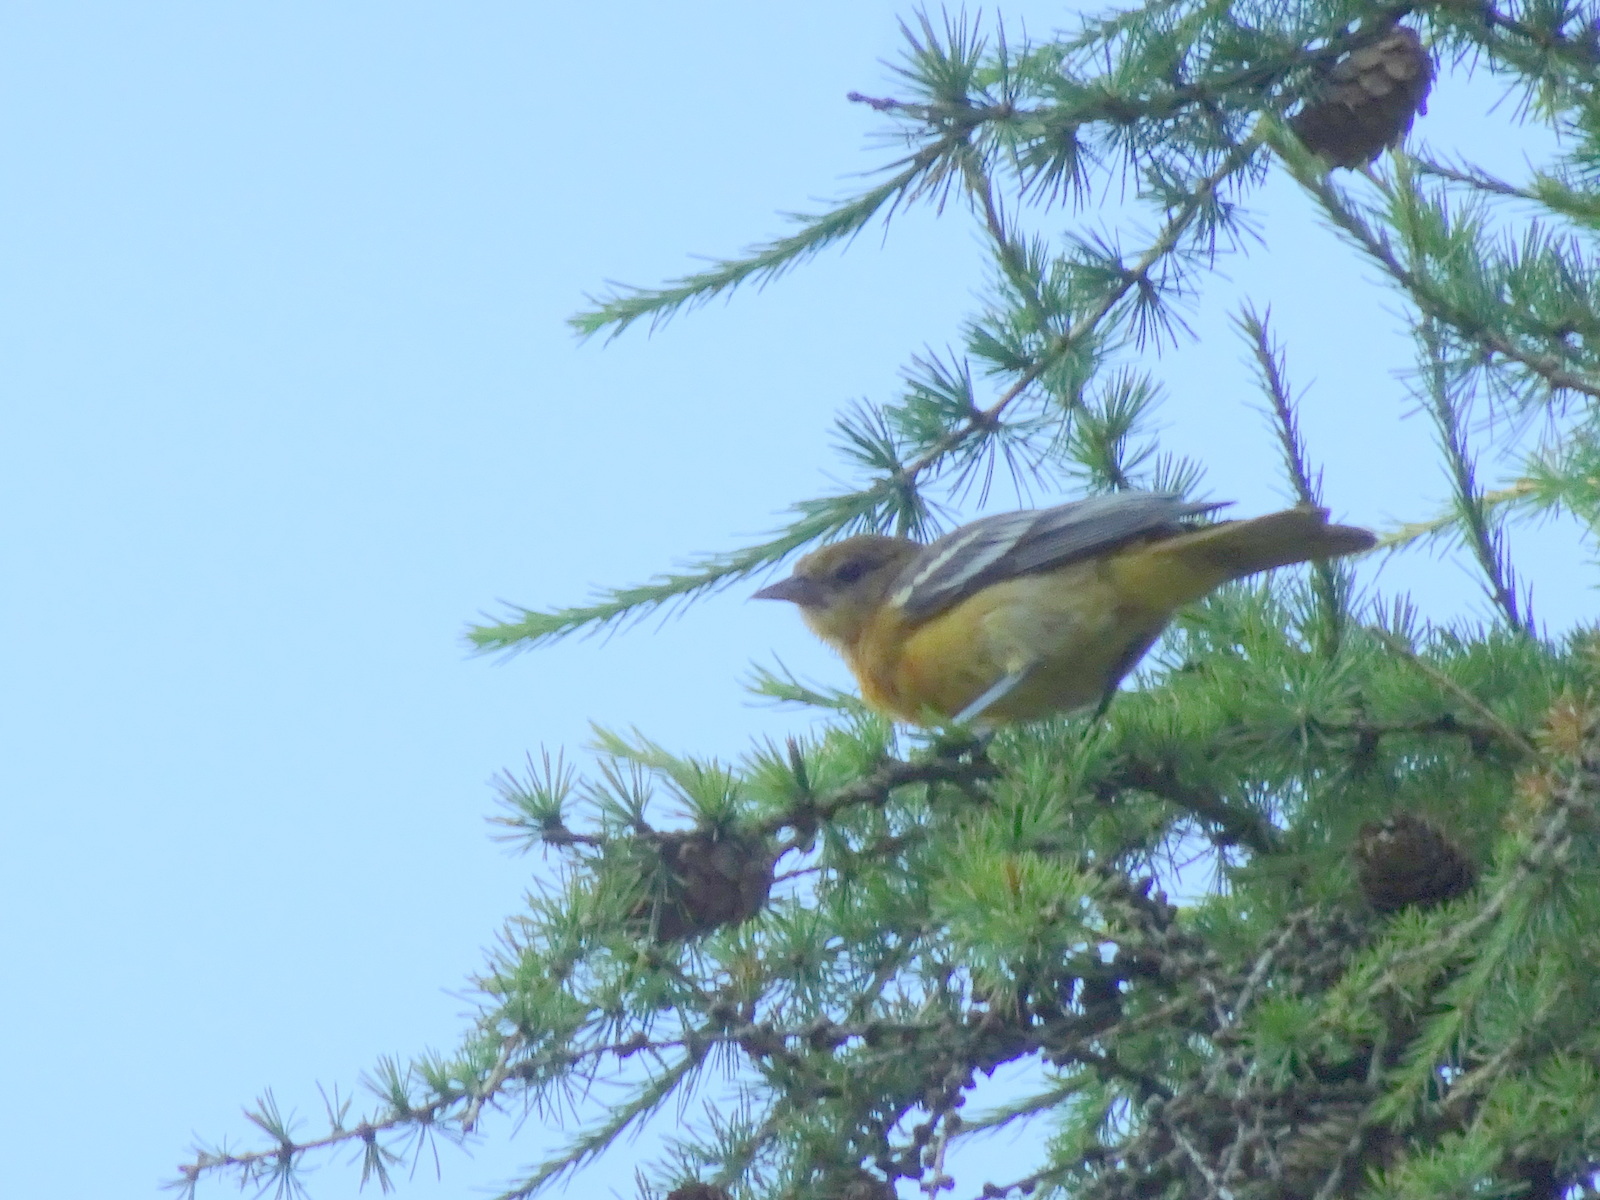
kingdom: Animalia
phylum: Chordata
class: Aves
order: Passeriformes
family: Icteridae
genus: Icterus
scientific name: Icterus galbula
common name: Baltimore oriole
